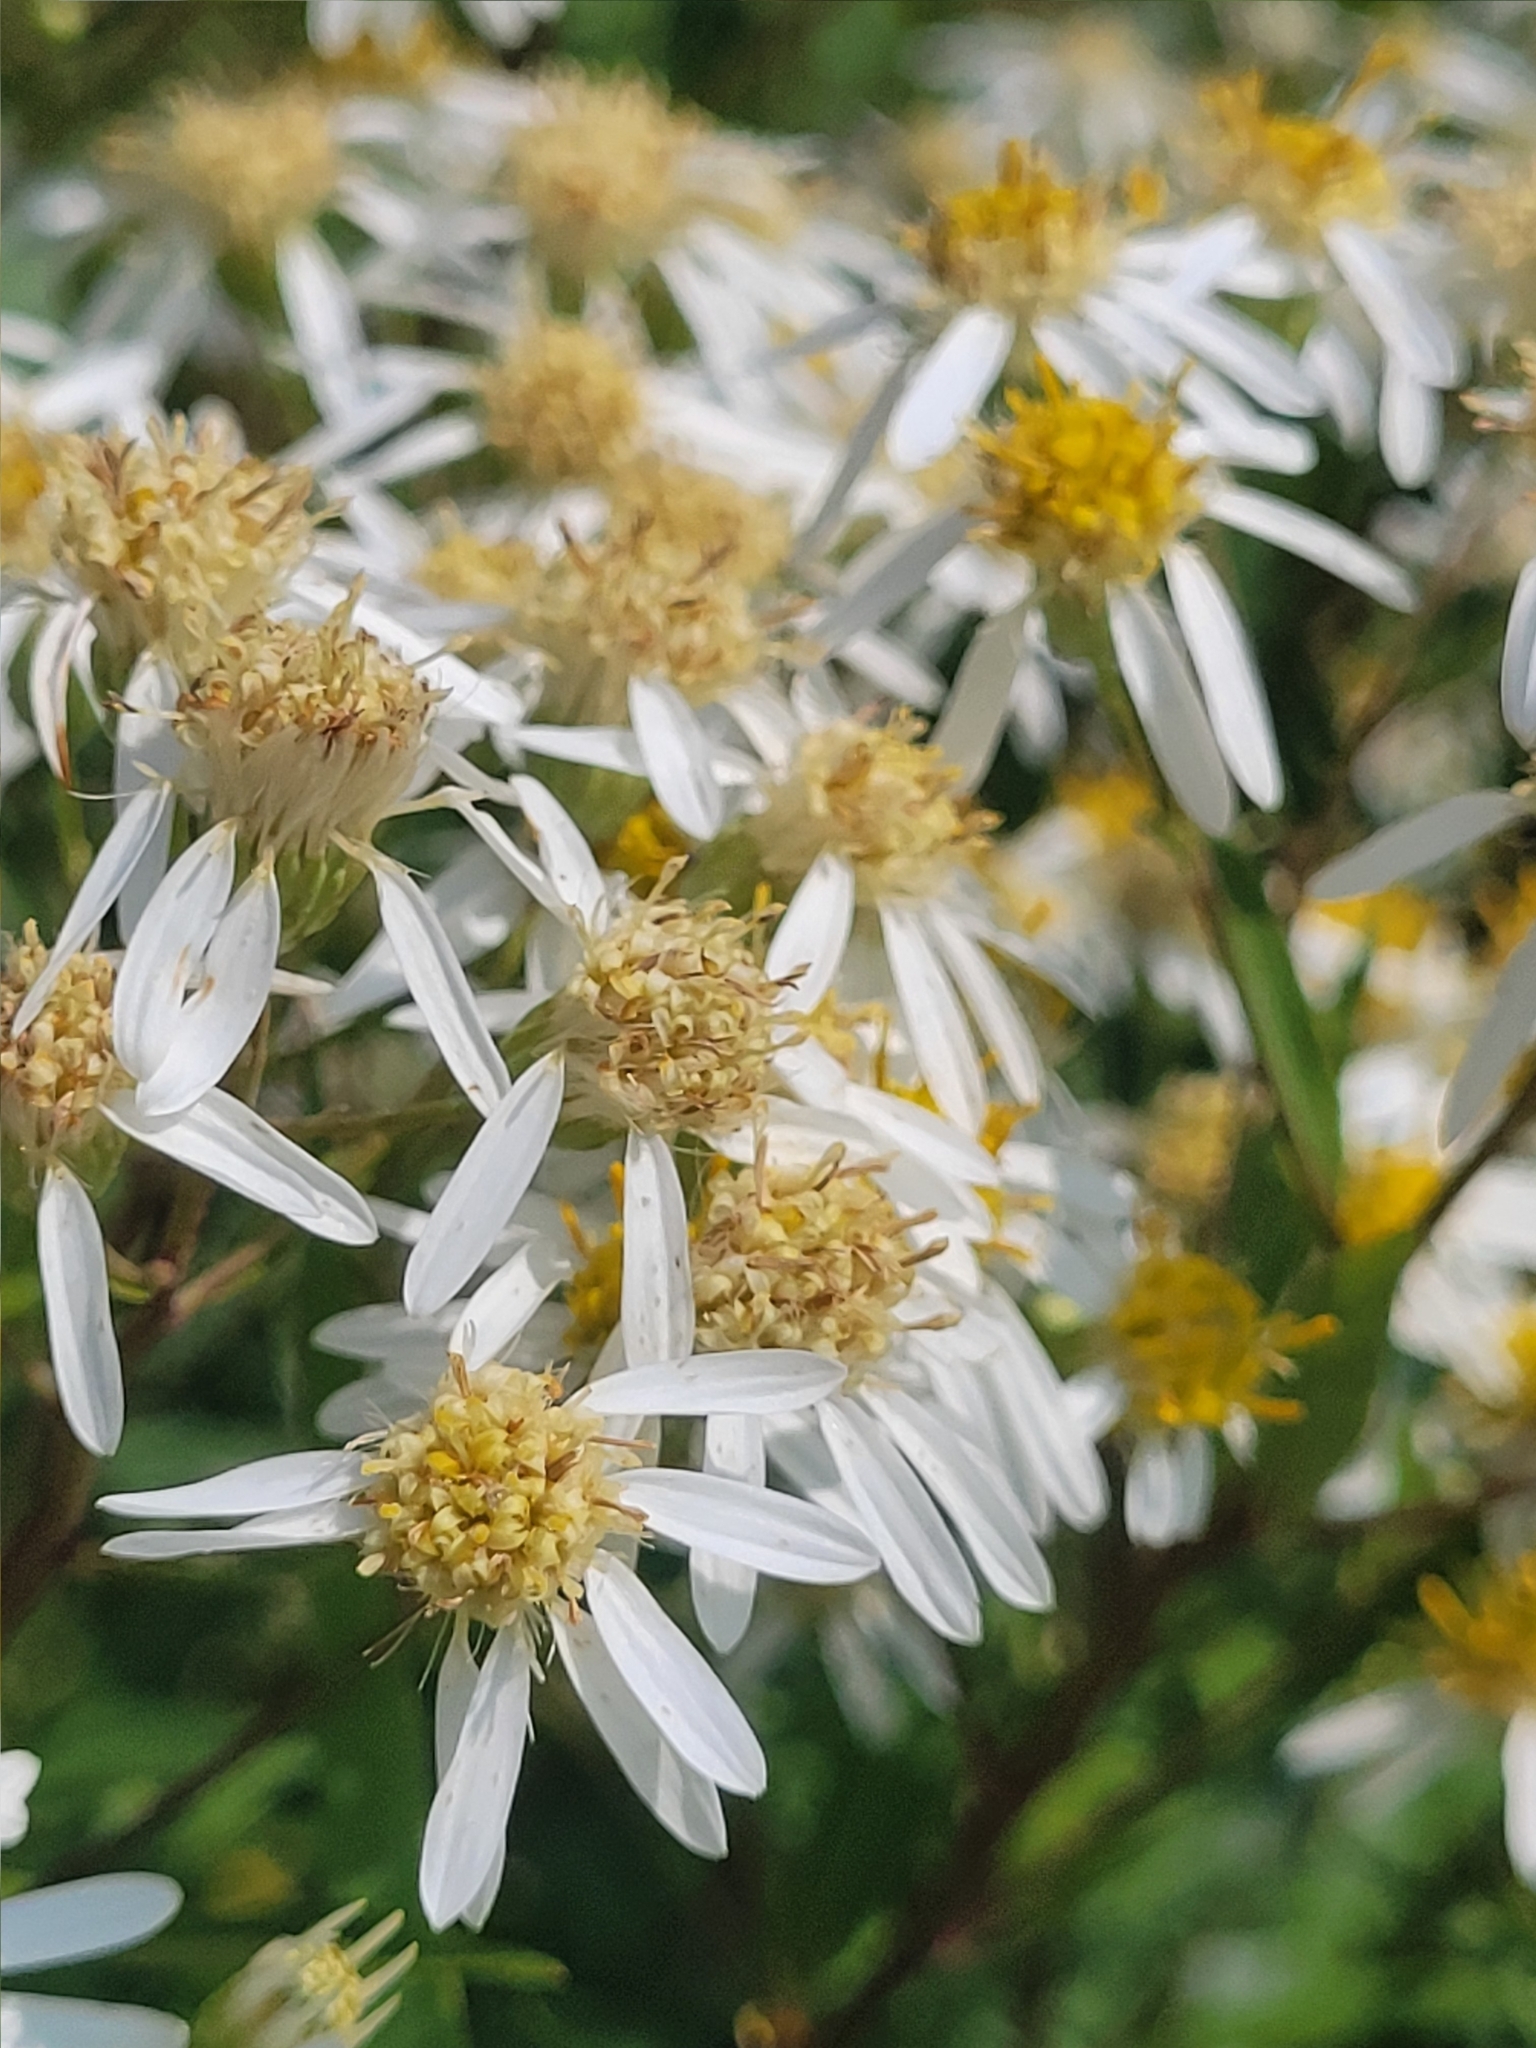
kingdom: Plantae
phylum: Tracheophyta
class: Magnoliopsida
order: Asterales
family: Asteraceae
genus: Doellingeria
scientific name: Doellingeria umbellata
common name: Flat-top white aster
